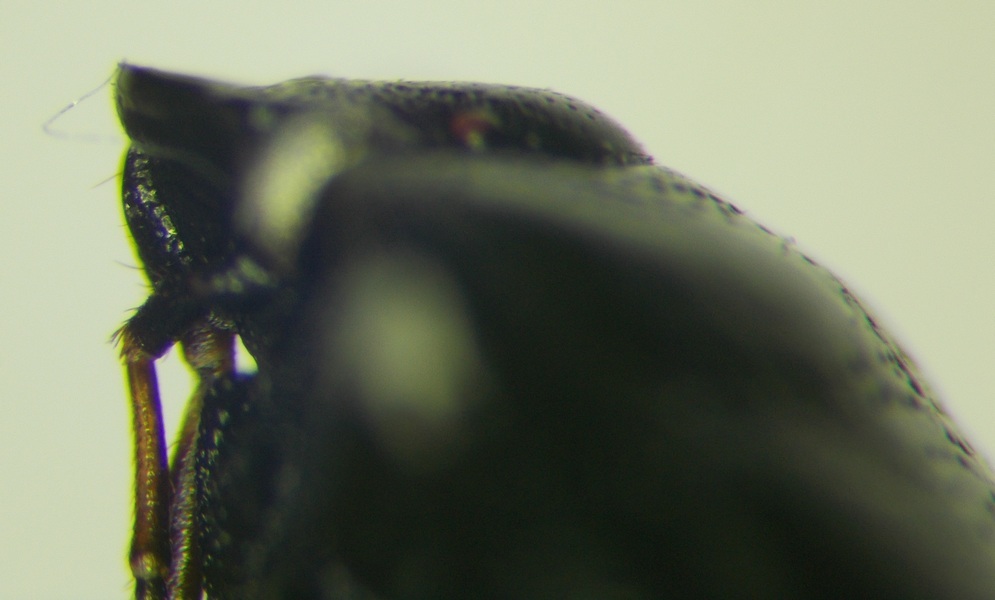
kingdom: Animalia
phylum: Arthropoda
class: Insecta
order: Hemiptera
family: Cydnidae
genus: Sehirus
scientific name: Sehirus morio
